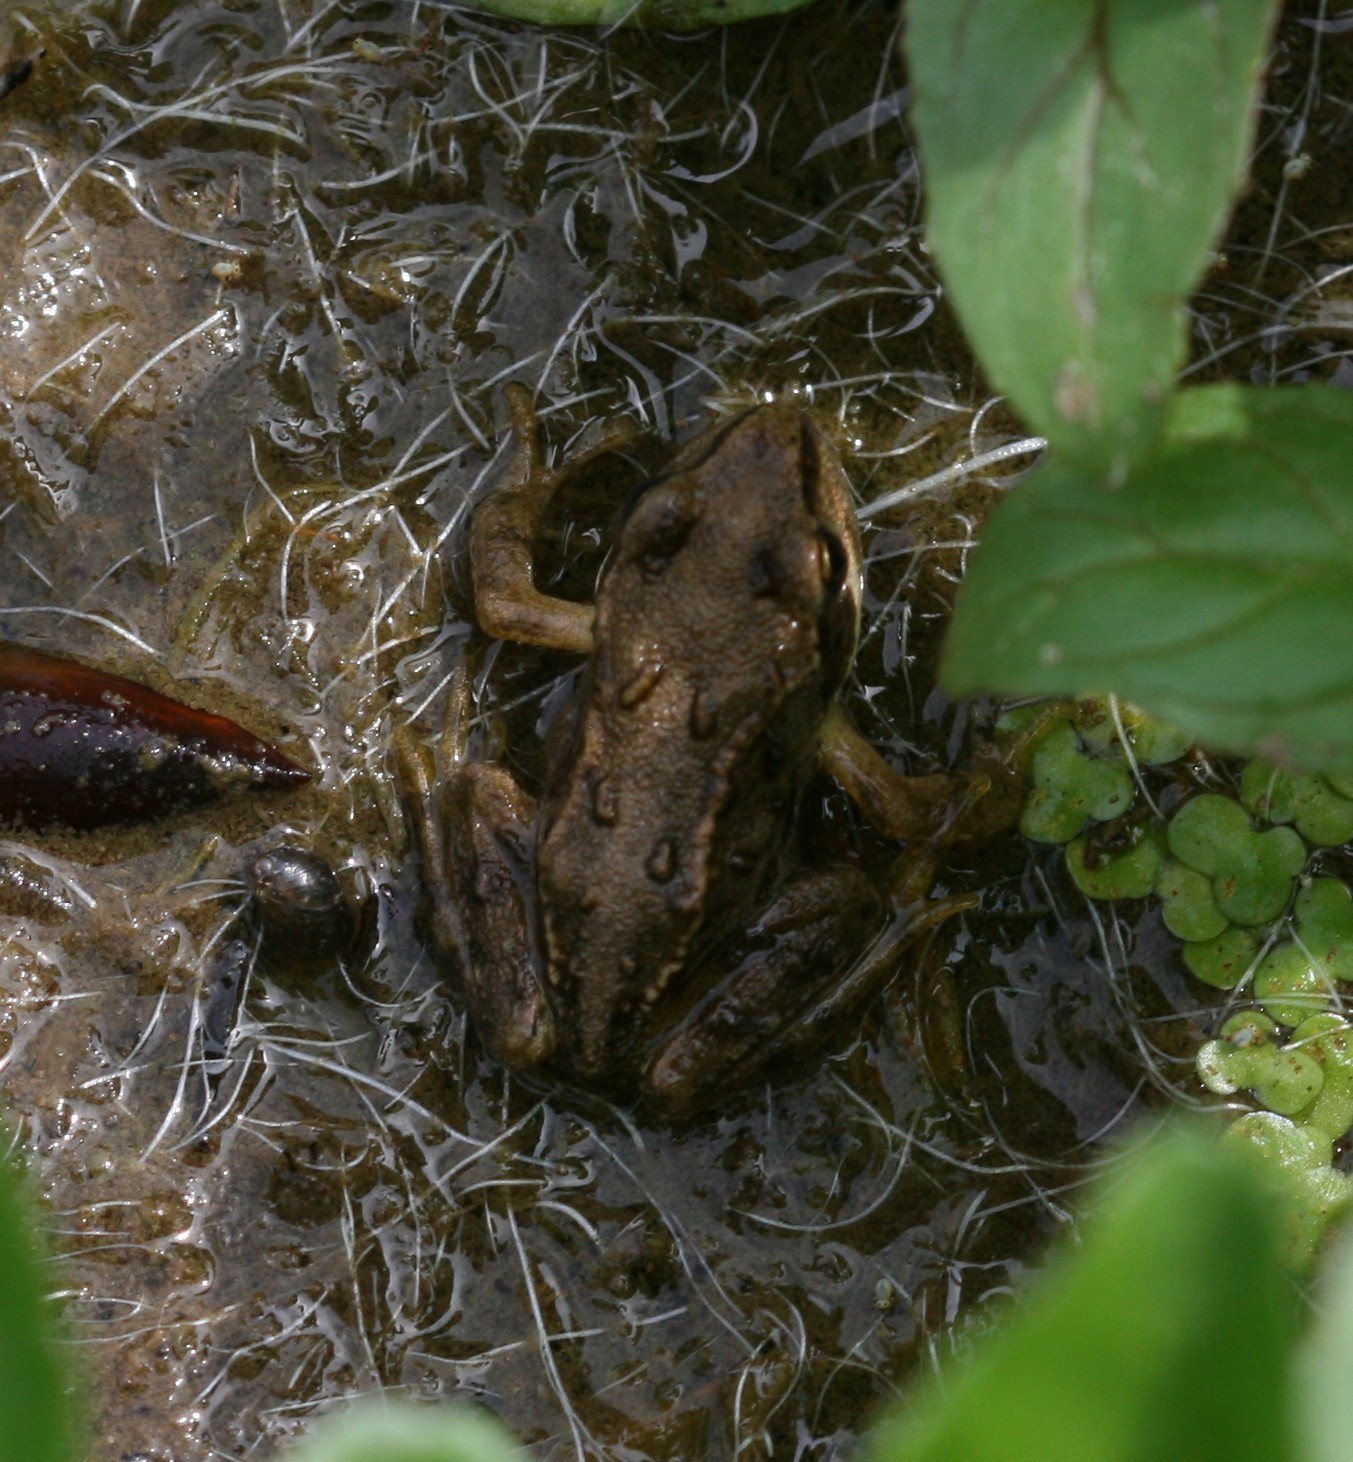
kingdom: Animalia
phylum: Chordata
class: Amphibia
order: Anura
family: Ranidae
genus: Rana
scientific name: Rana temporaria
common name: Common frog
